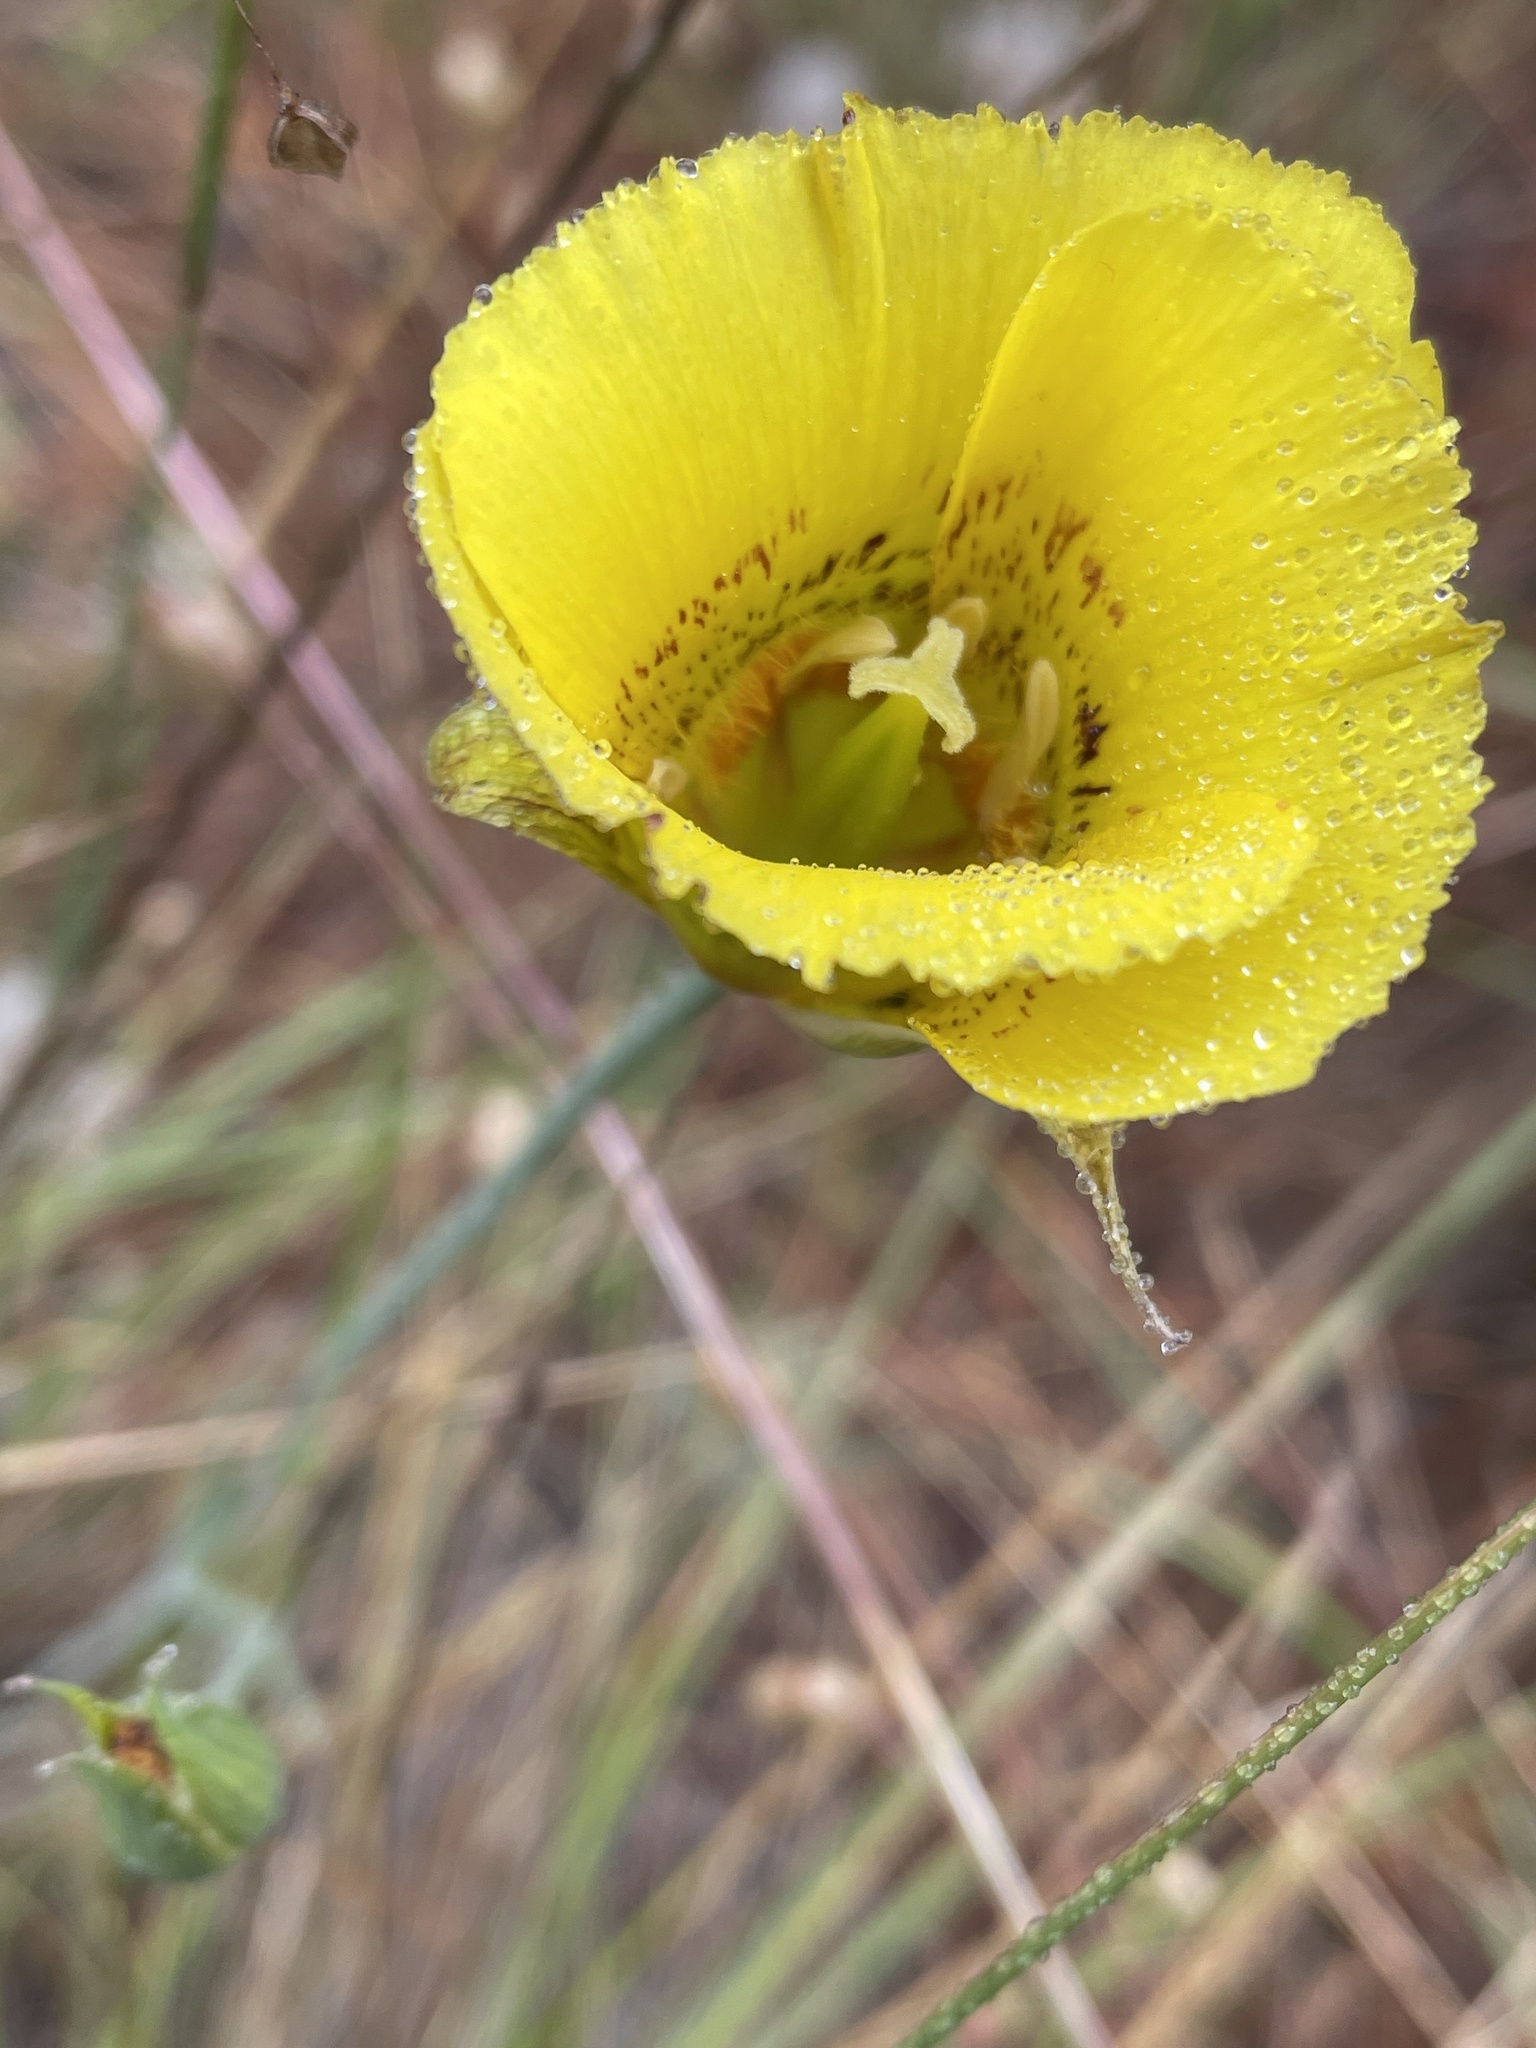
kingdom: Plantae
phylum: Tracheophyta
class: Liliopsida
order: Liliales
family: Liliaceae
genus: Calochortus
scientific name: Calochortus luteus
